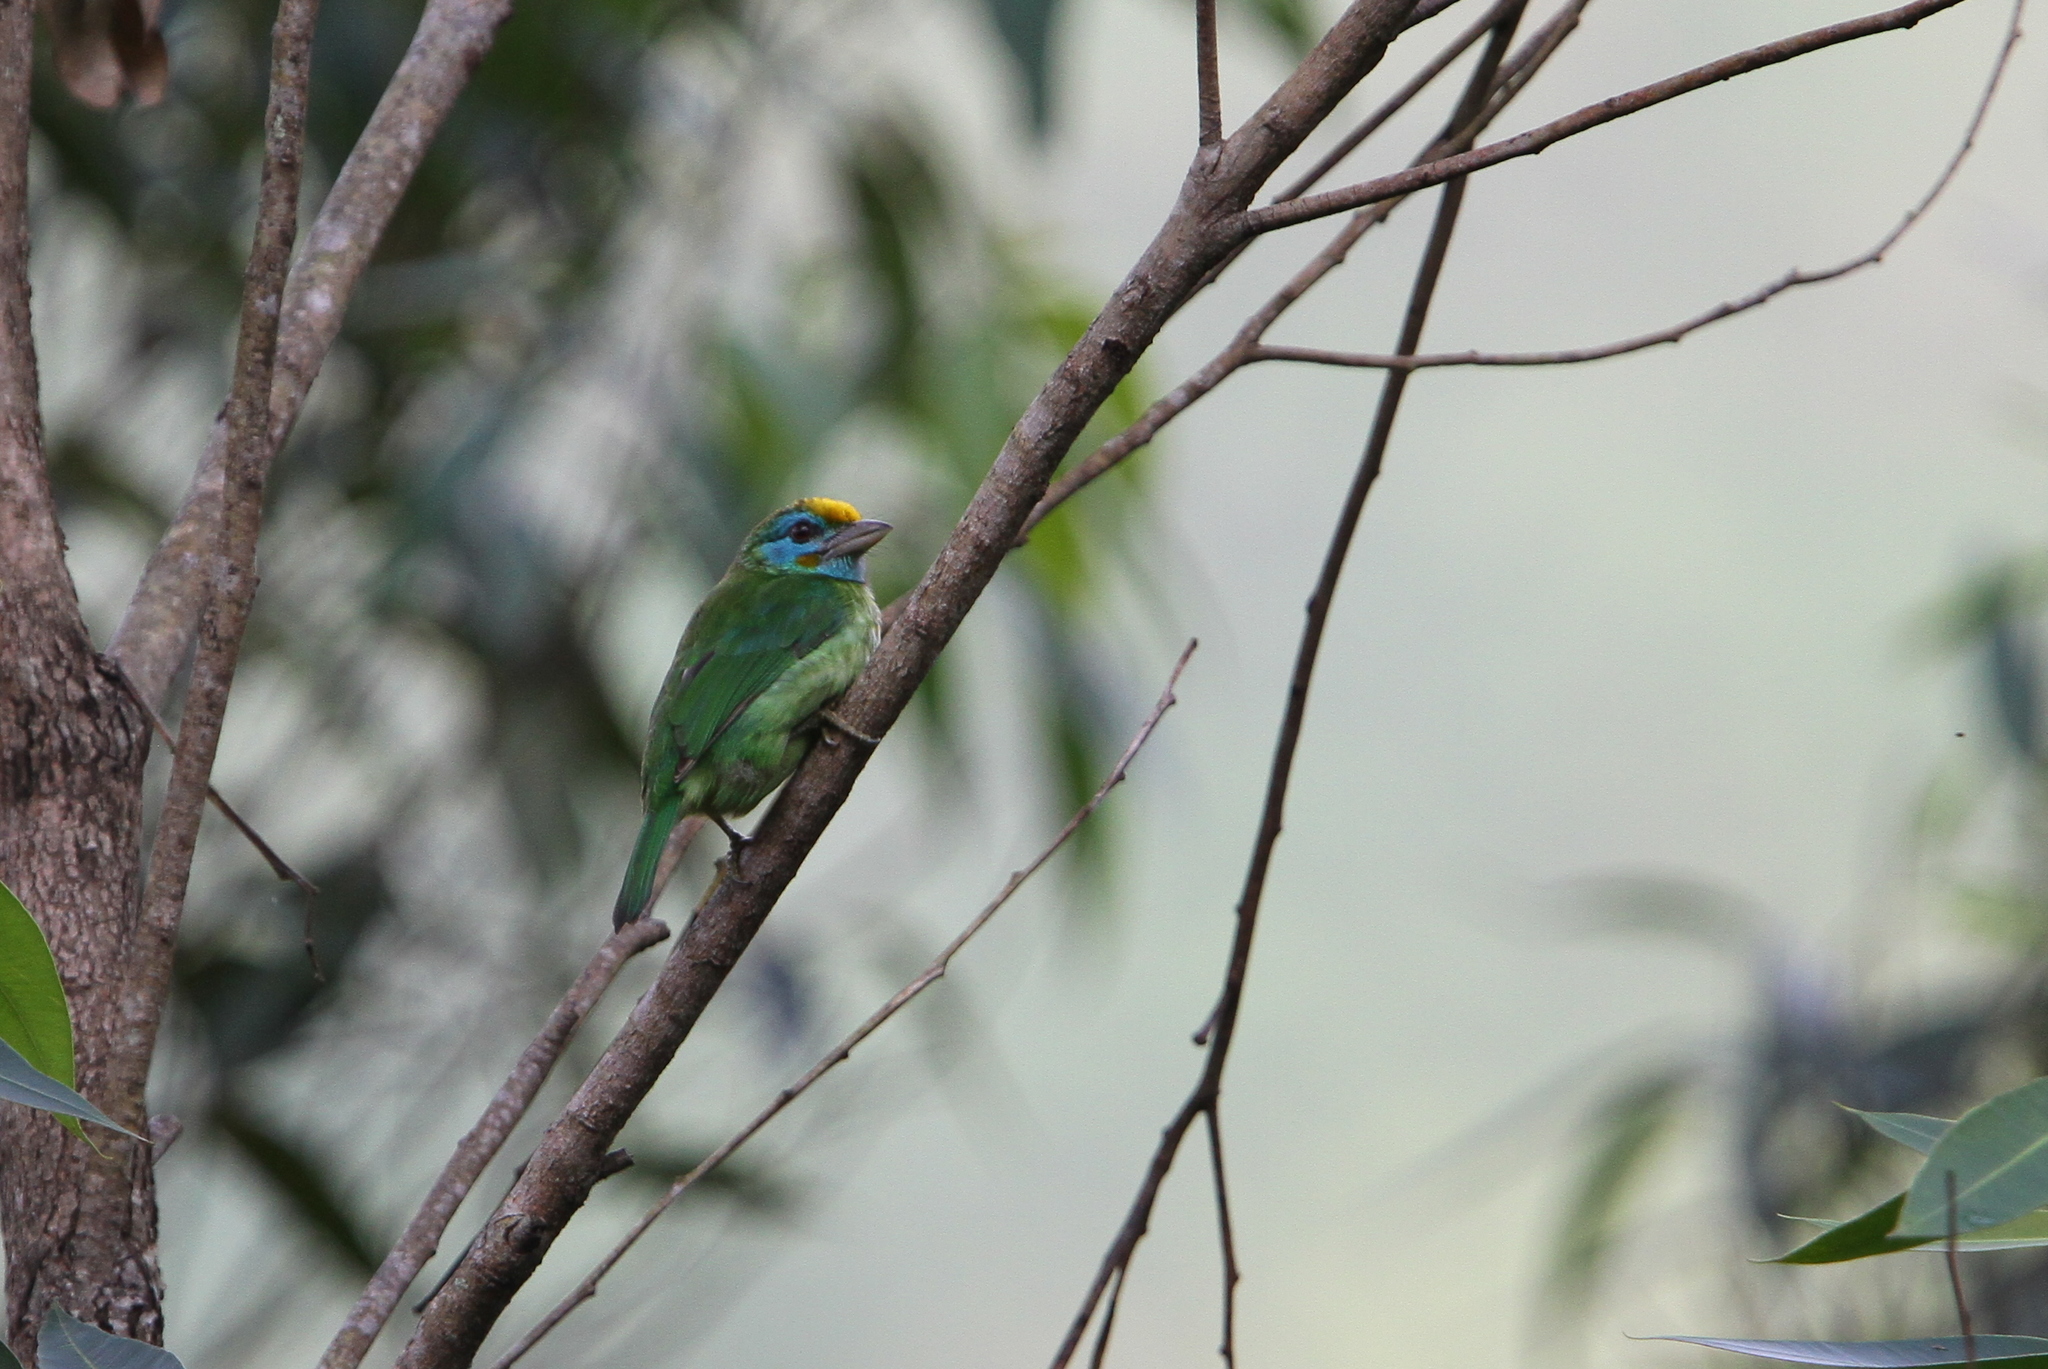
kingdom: Animalia
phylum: Chordata
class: Aves
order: Piciformes
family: Megalaimidae
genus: Psilopogon
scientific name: Psilopogon flavifrons
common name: Yellow-fronted barbet
